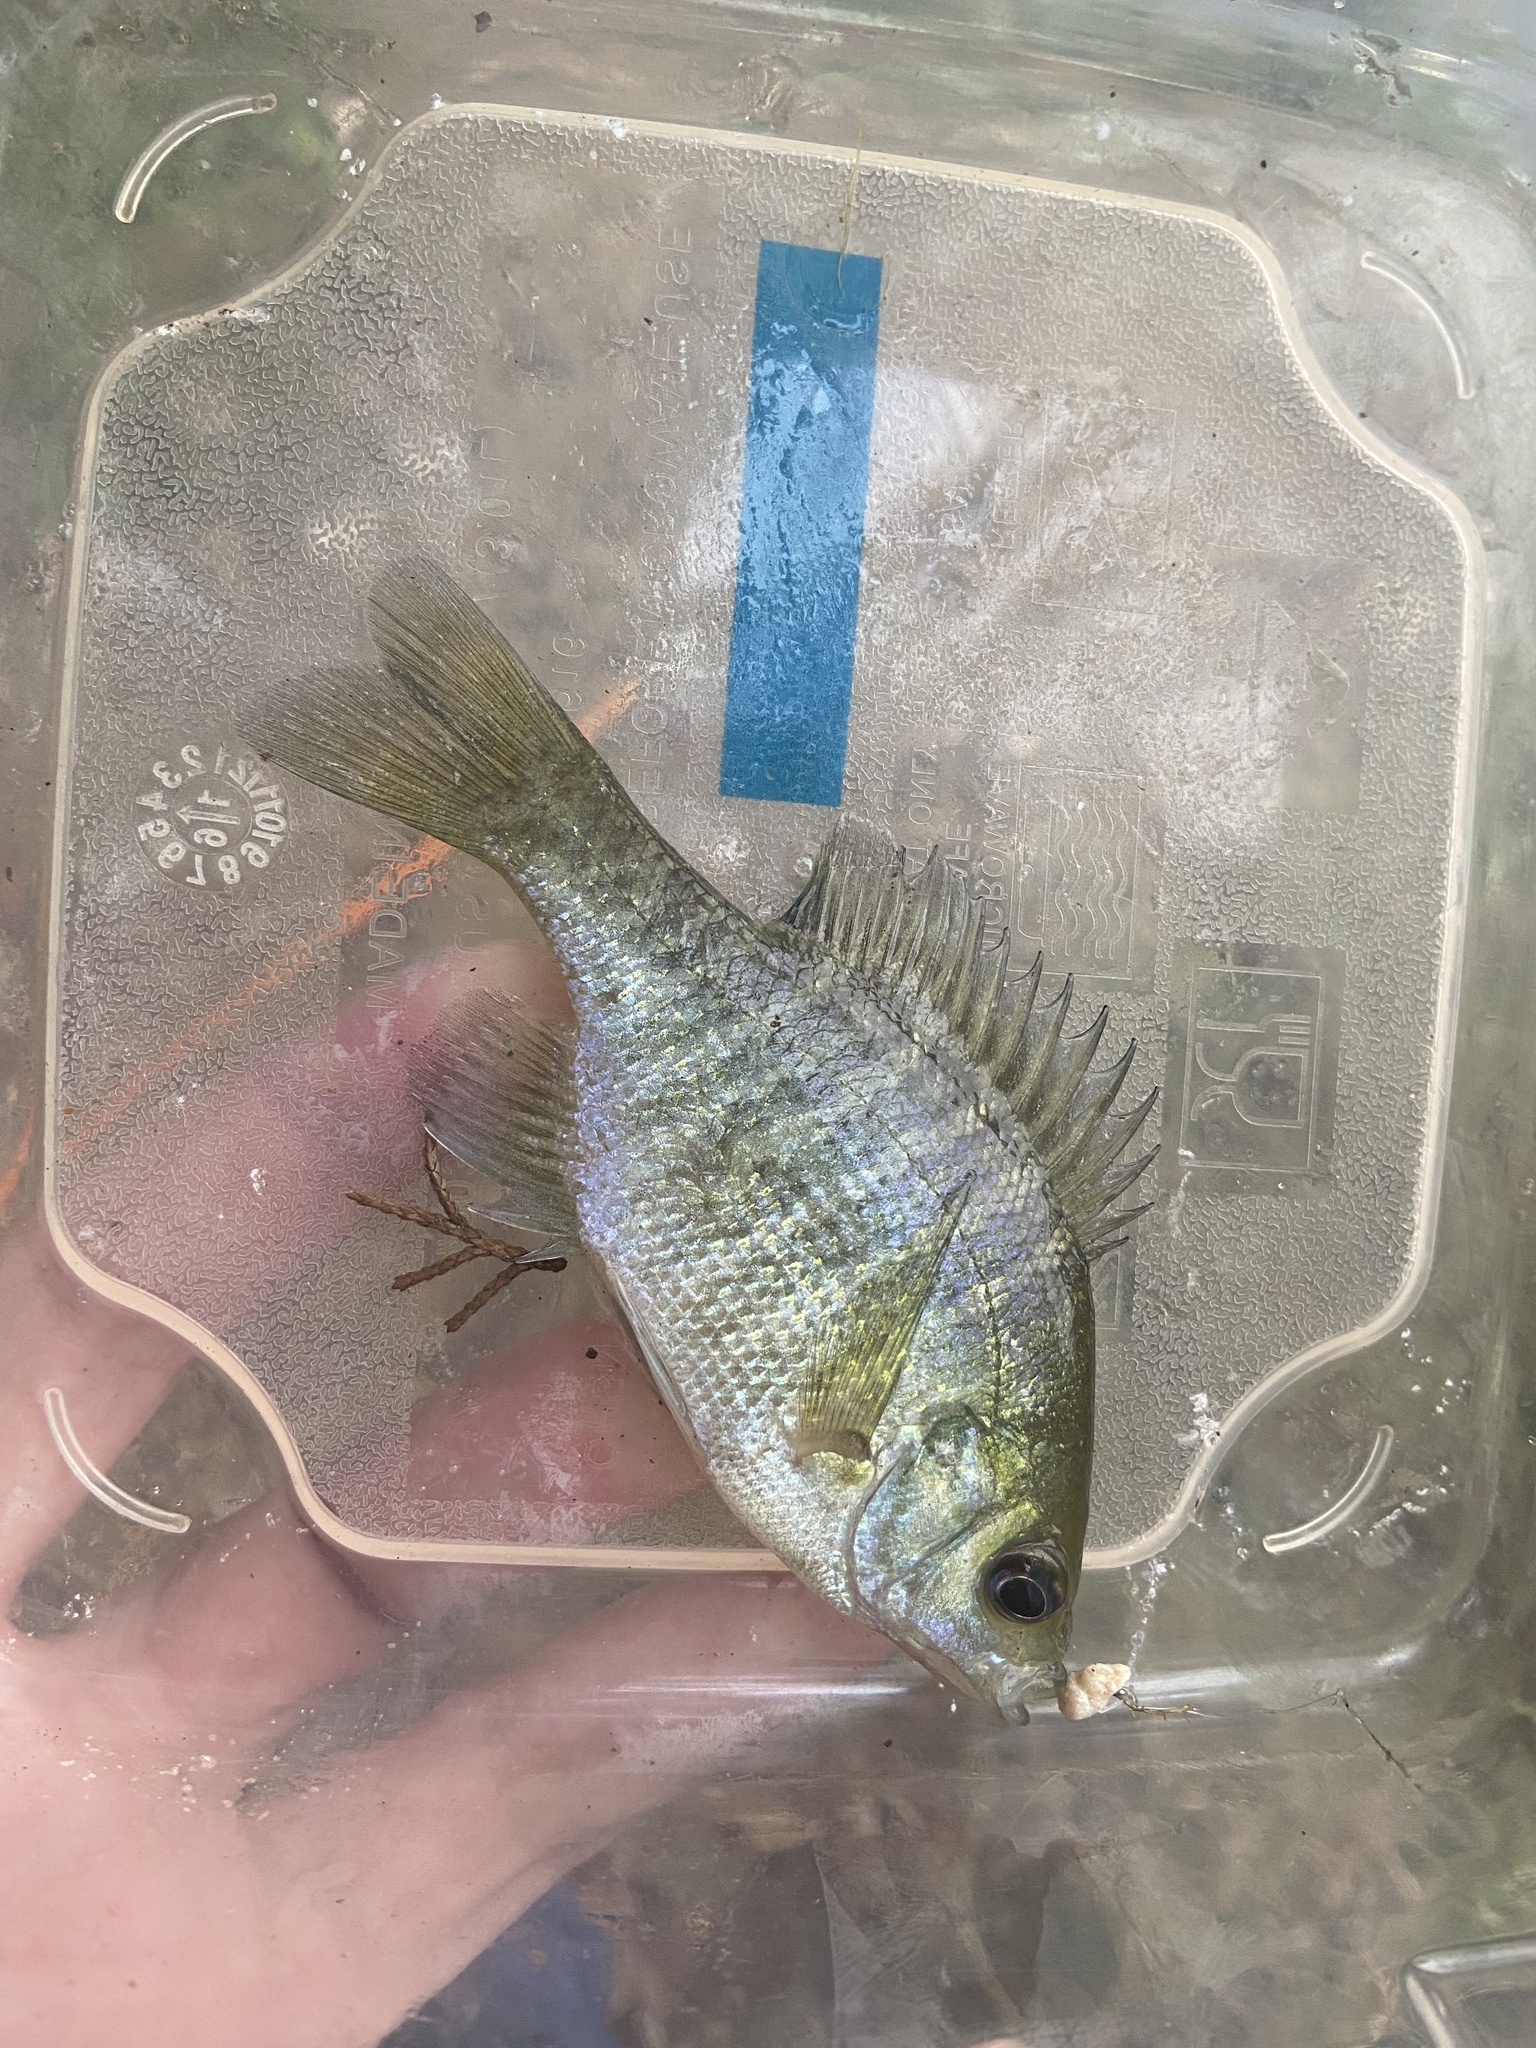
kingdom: Animalia
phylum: Chordata
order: Perciformes
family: Centrarchidae
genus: Lepomis
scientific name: Lepomis macrochirus
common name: Bluegill
